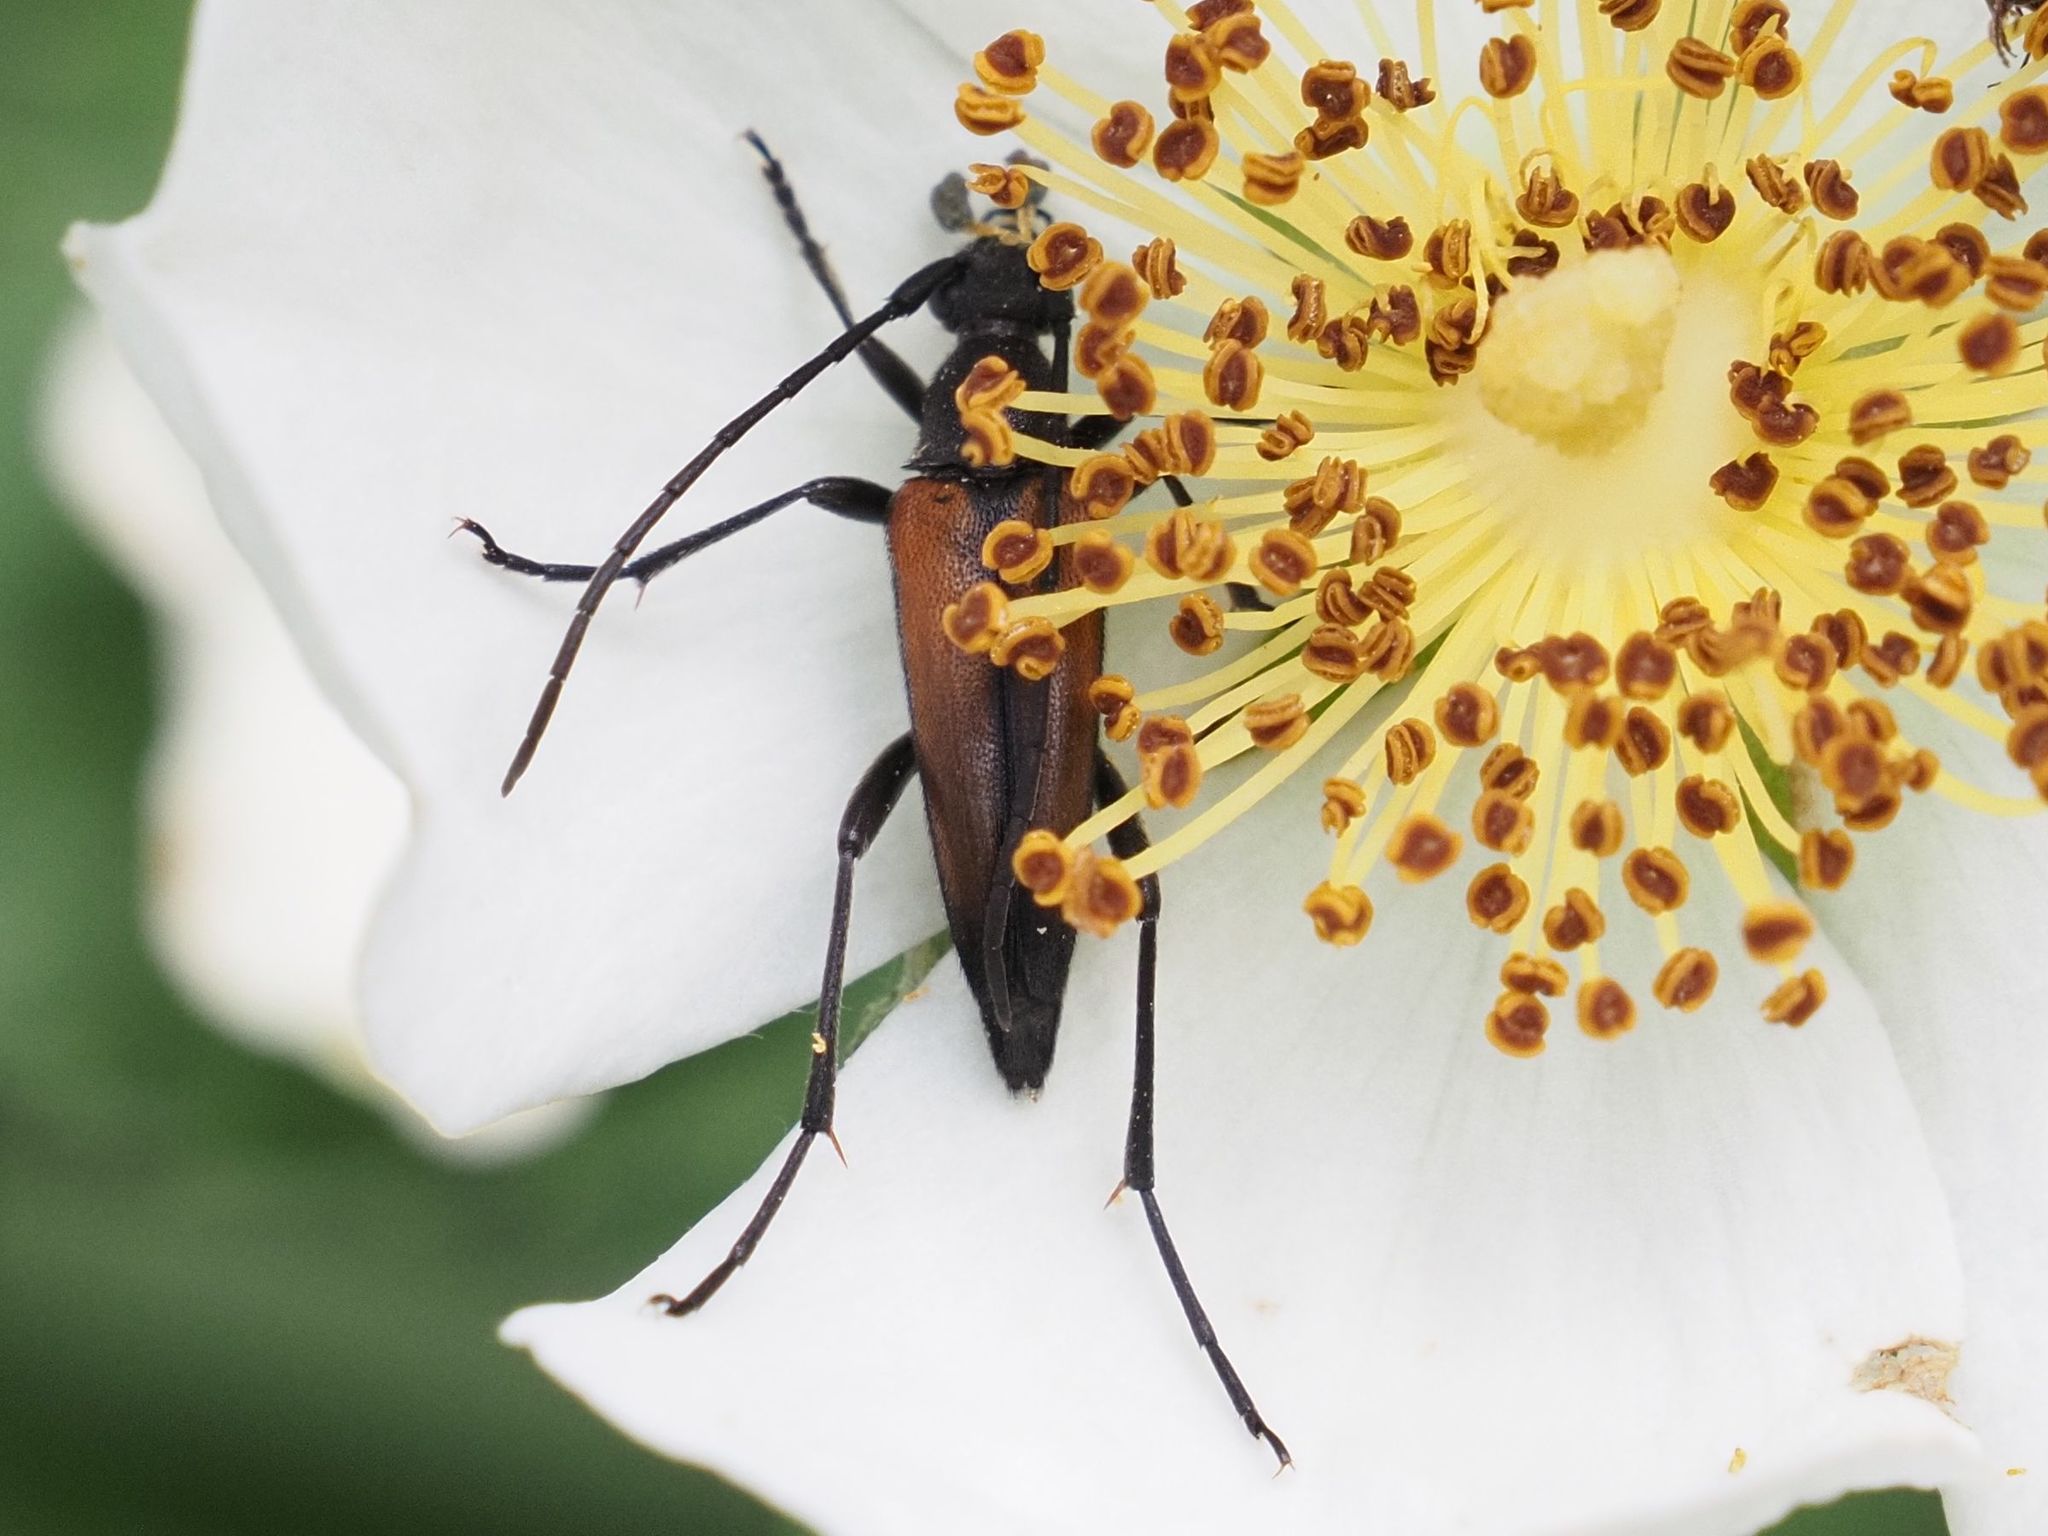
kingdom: Animalia
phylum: Arthropoda
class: Insecta
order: Coleoptera
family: Cerambycidae
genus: Stenurella
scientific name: Stenurella melanura
